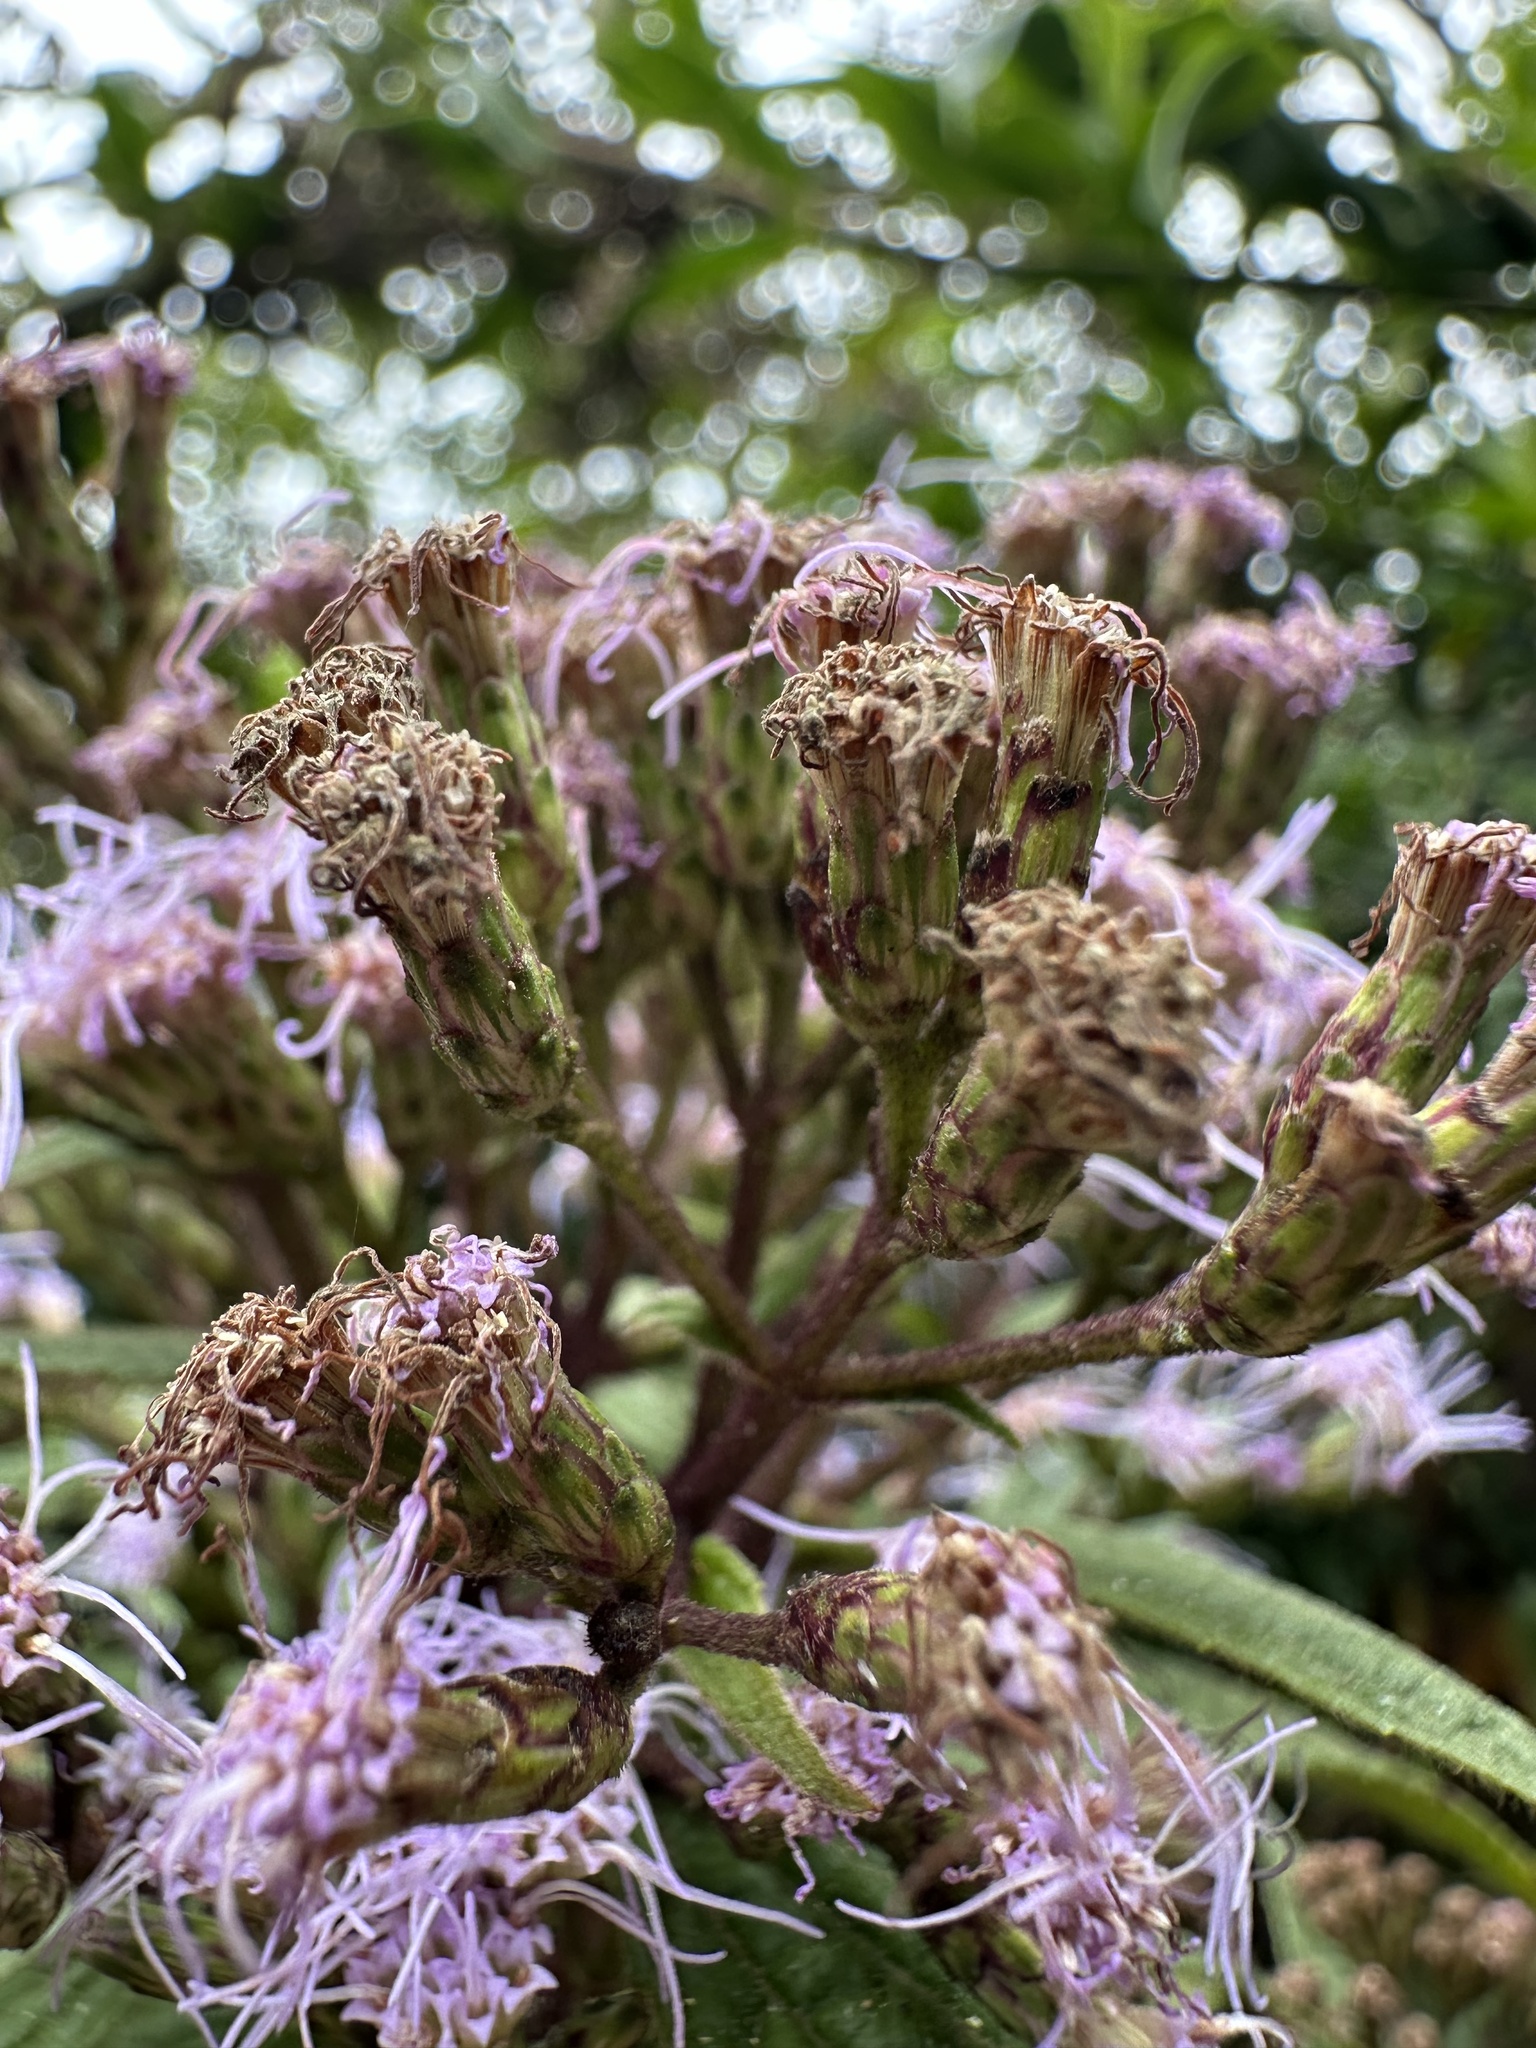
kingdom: Plantae
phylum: Tracheophyta
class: Magnoliopsida
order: Asterales
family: Asteraceae
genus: Chromolaena
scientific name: Chromolaena scabra
